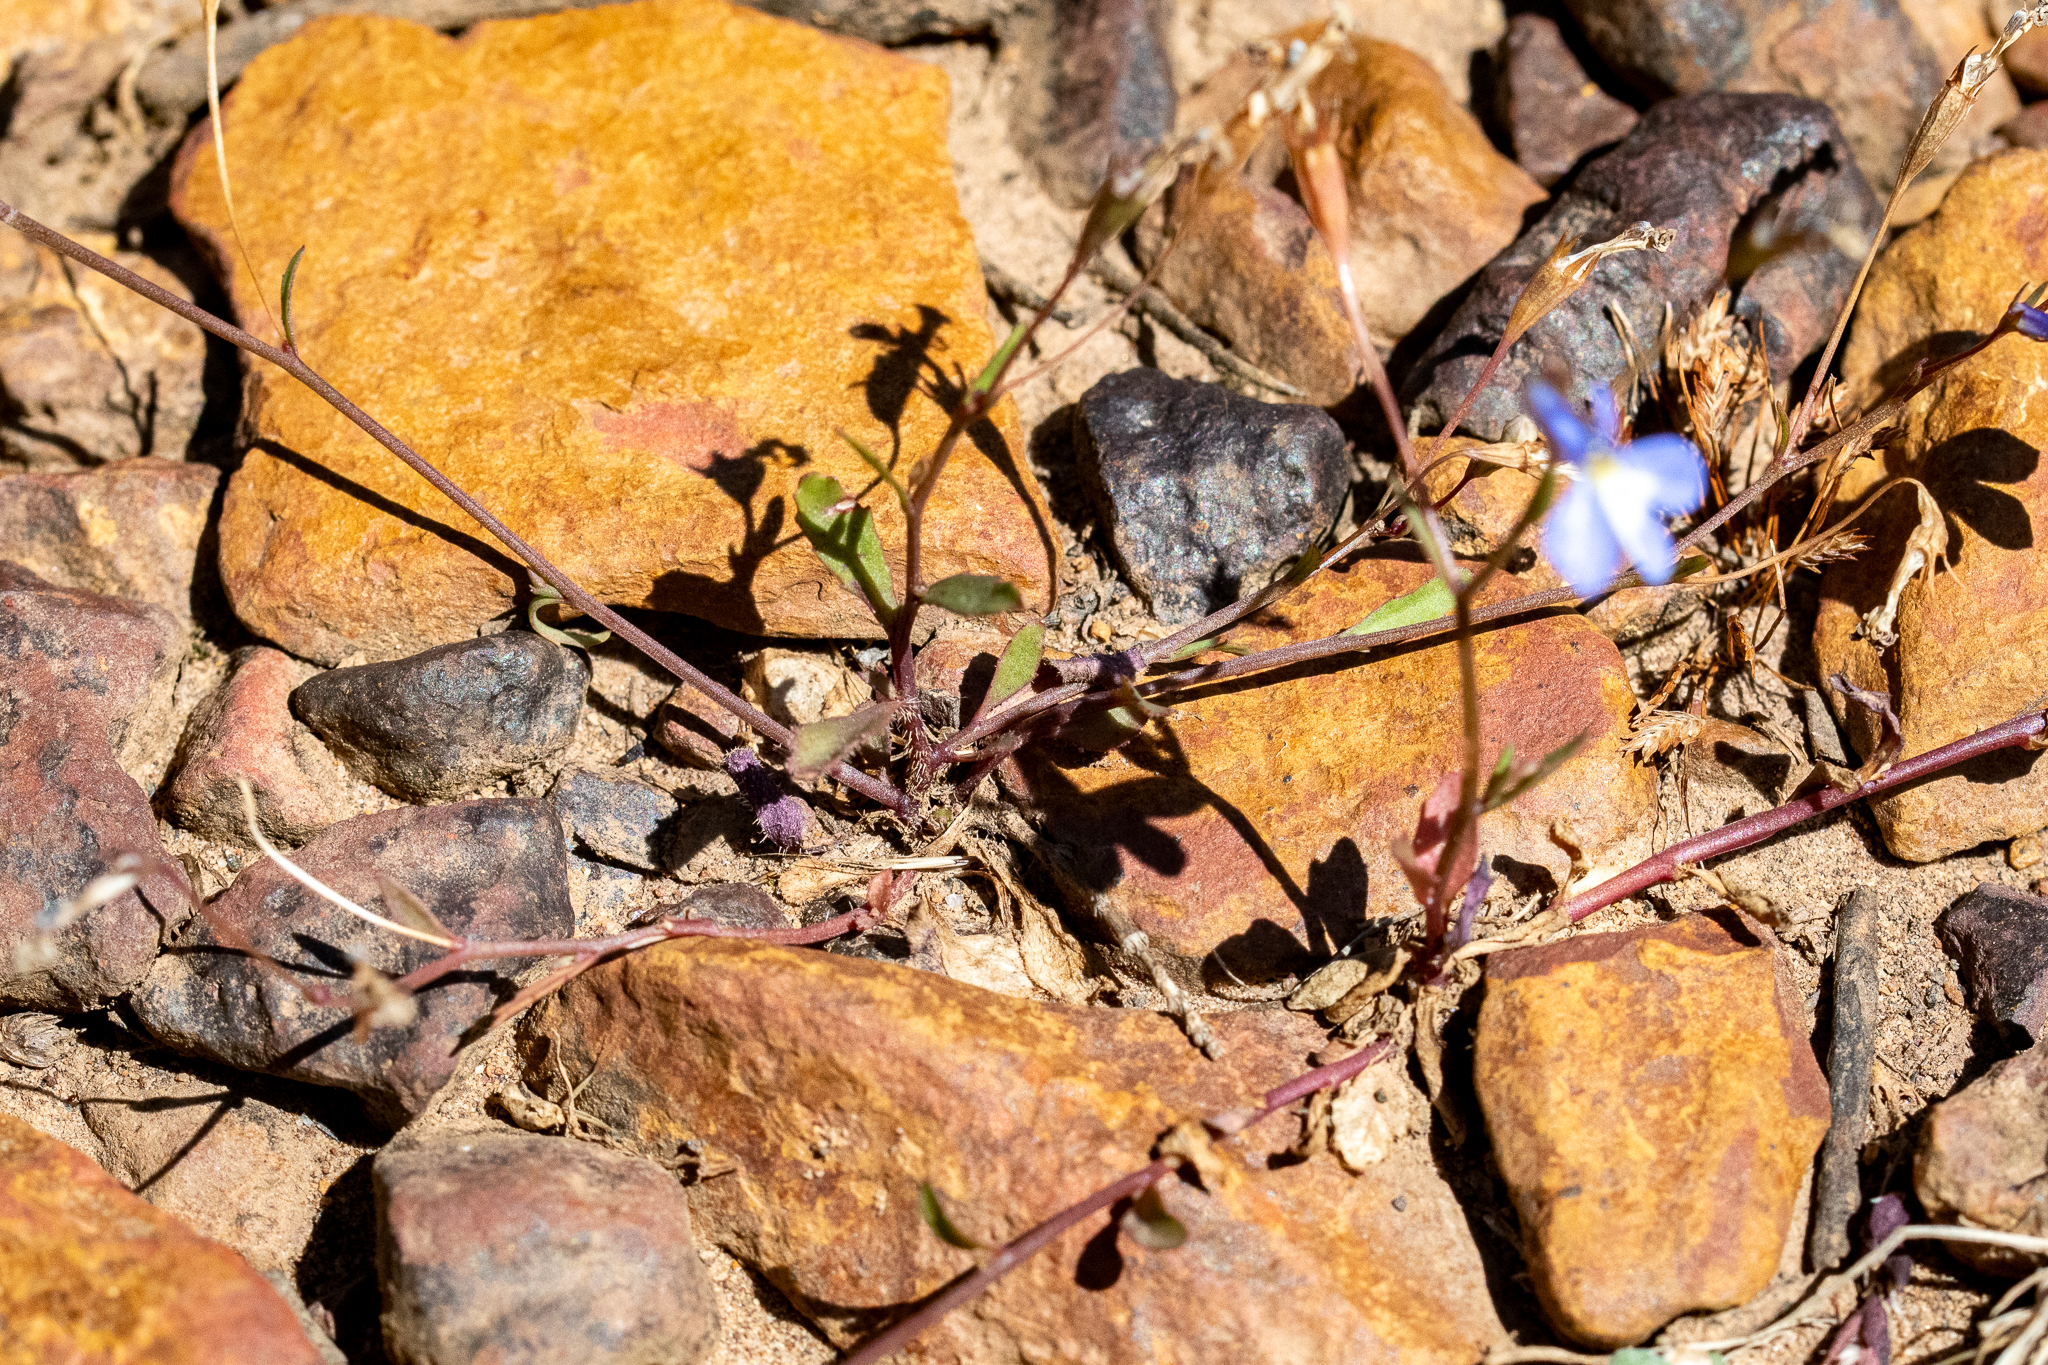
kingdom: Plantae
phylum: Tracheophyta
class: Magnoliopsida
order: Asterales
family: Campanulaceae
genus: Lobelia
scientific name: Lobelia erinus
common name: Edging lobelia
